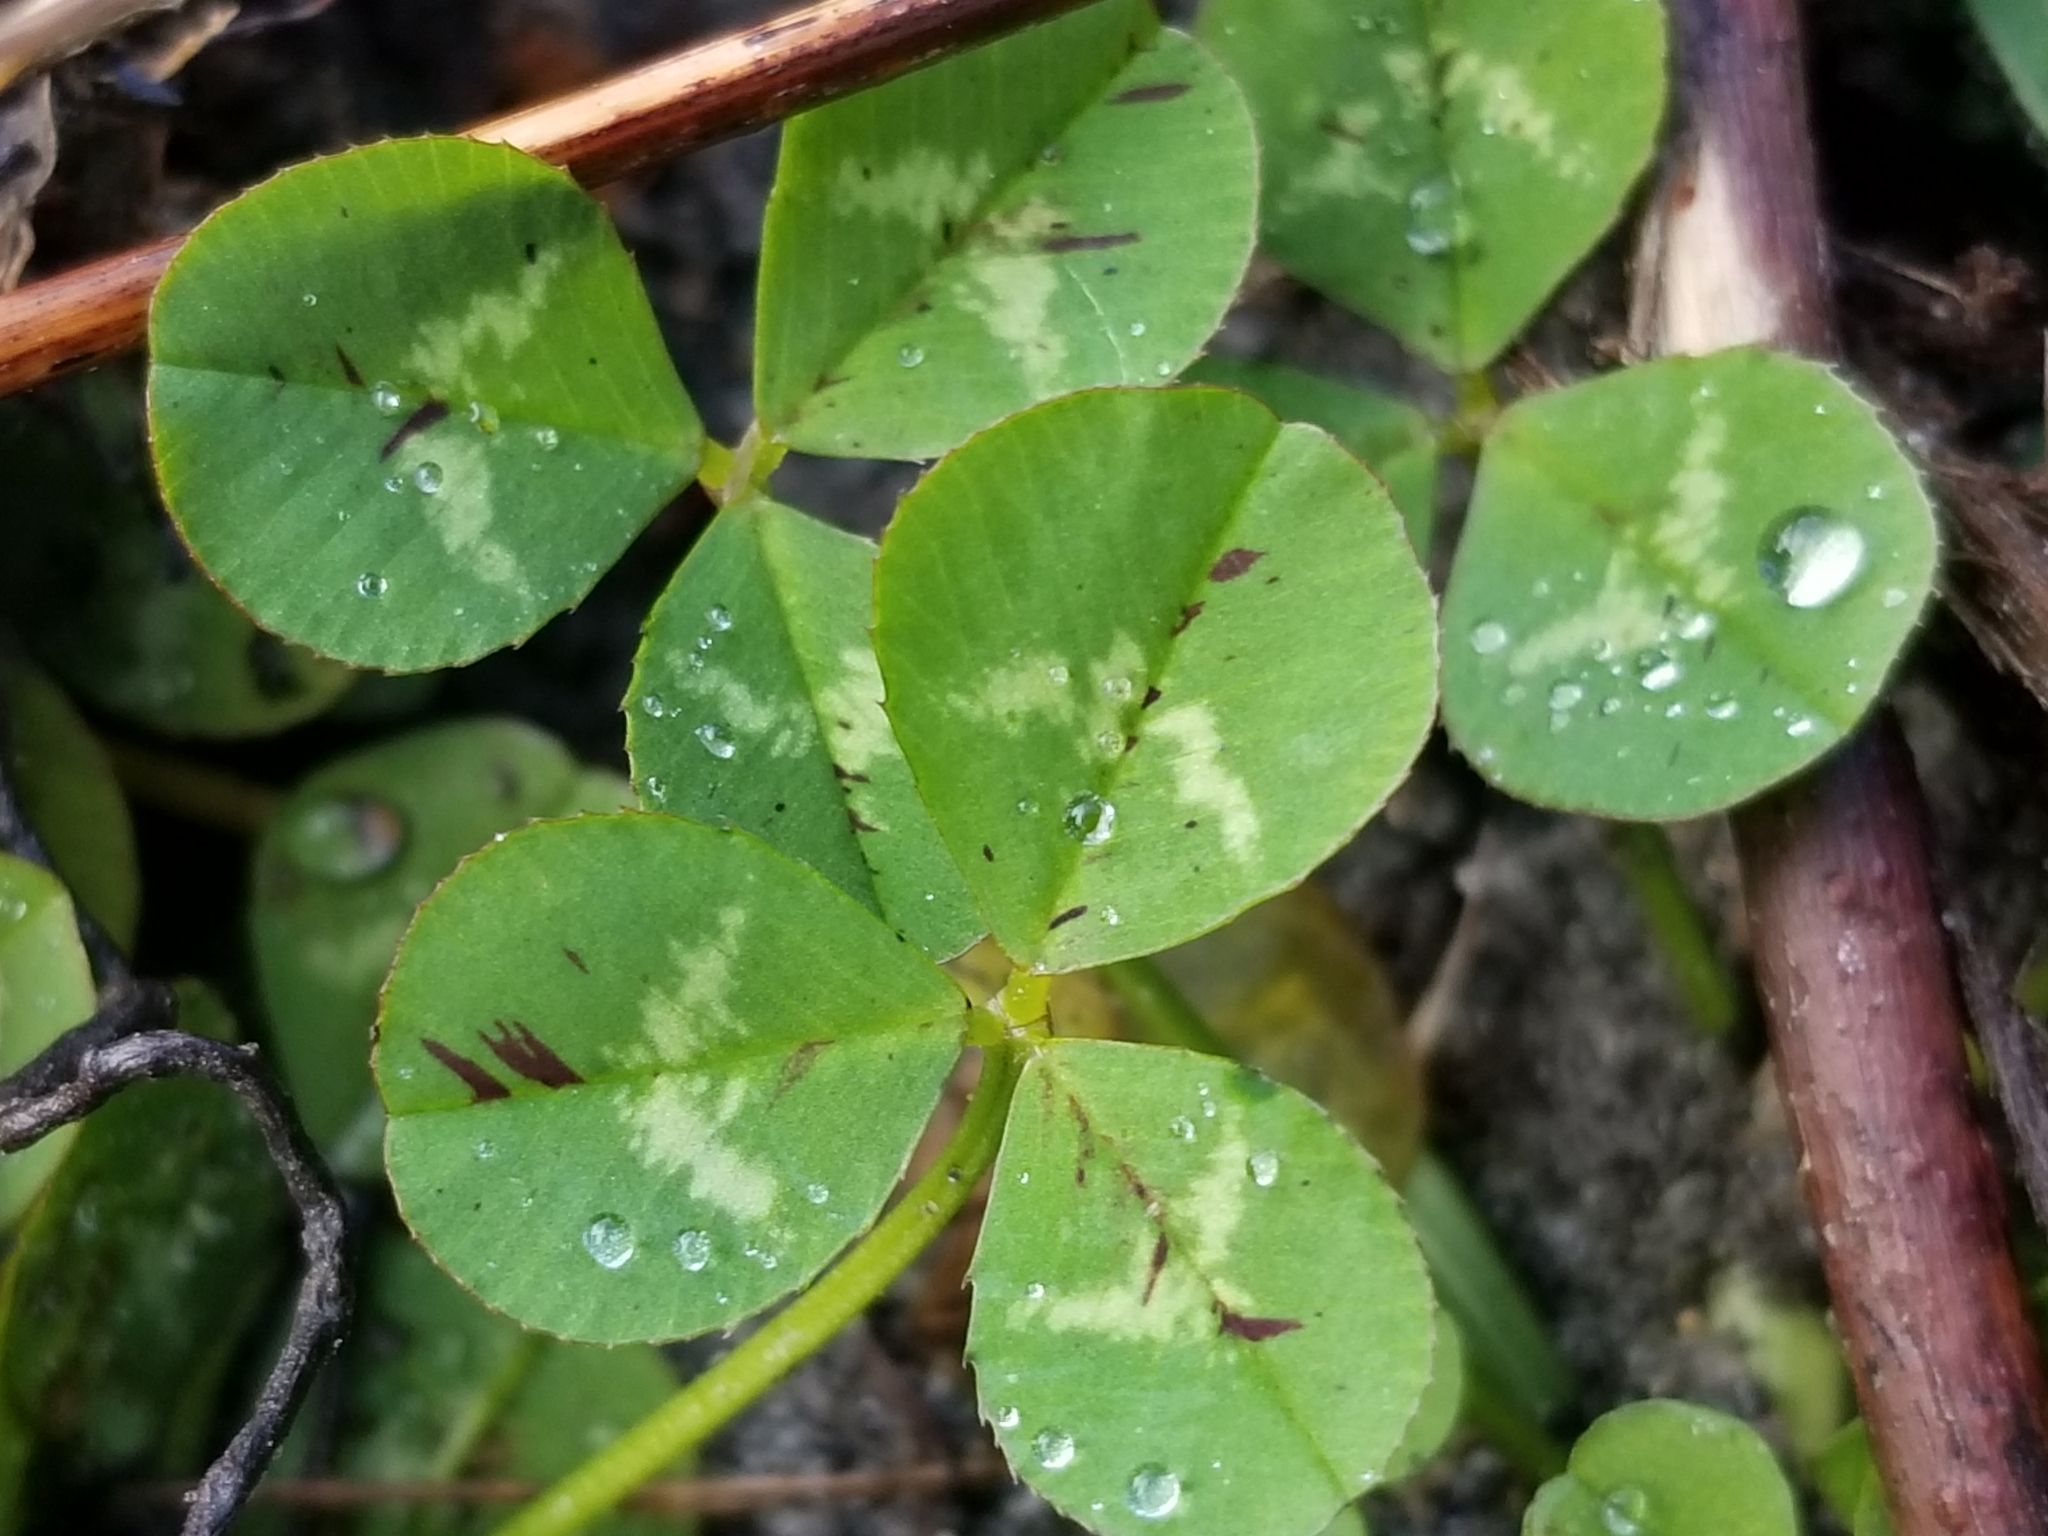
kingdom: Plantae
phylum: Tracheophyta
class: Magnoliopsida
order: Fabales
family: Fabaceae
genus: Trifolium
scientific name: Trifolium repens
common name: White clover
